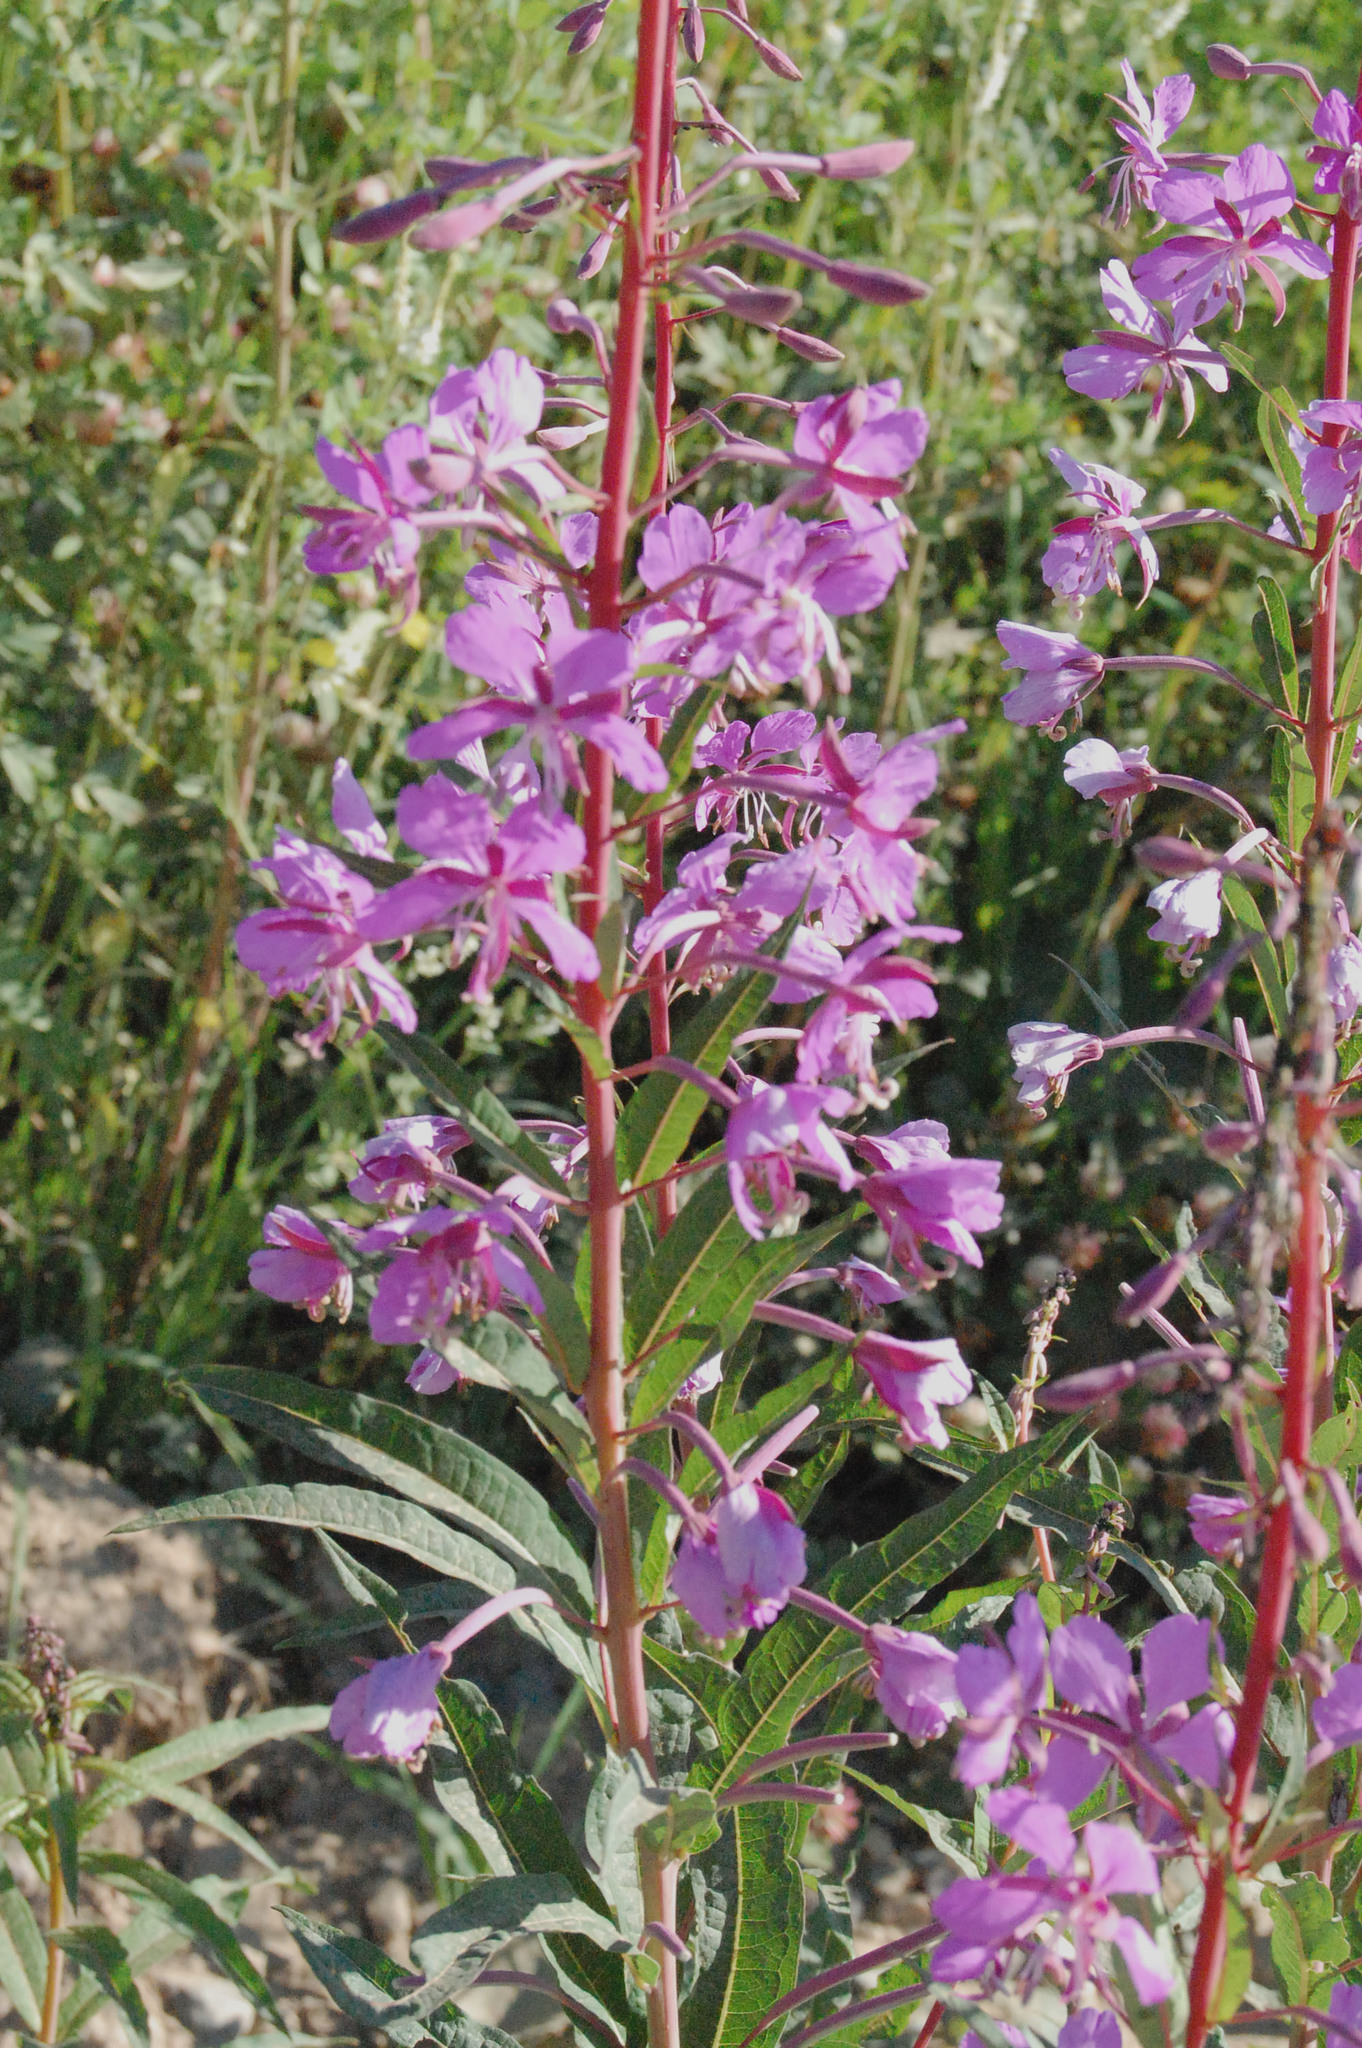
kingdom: Plantae
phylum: Tracheophyta
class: Magnoliopsida
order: Myrtales
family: Onagraceae
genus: Chamaenerion
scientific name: Chamaenerion angustifolium
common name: Fireweed
